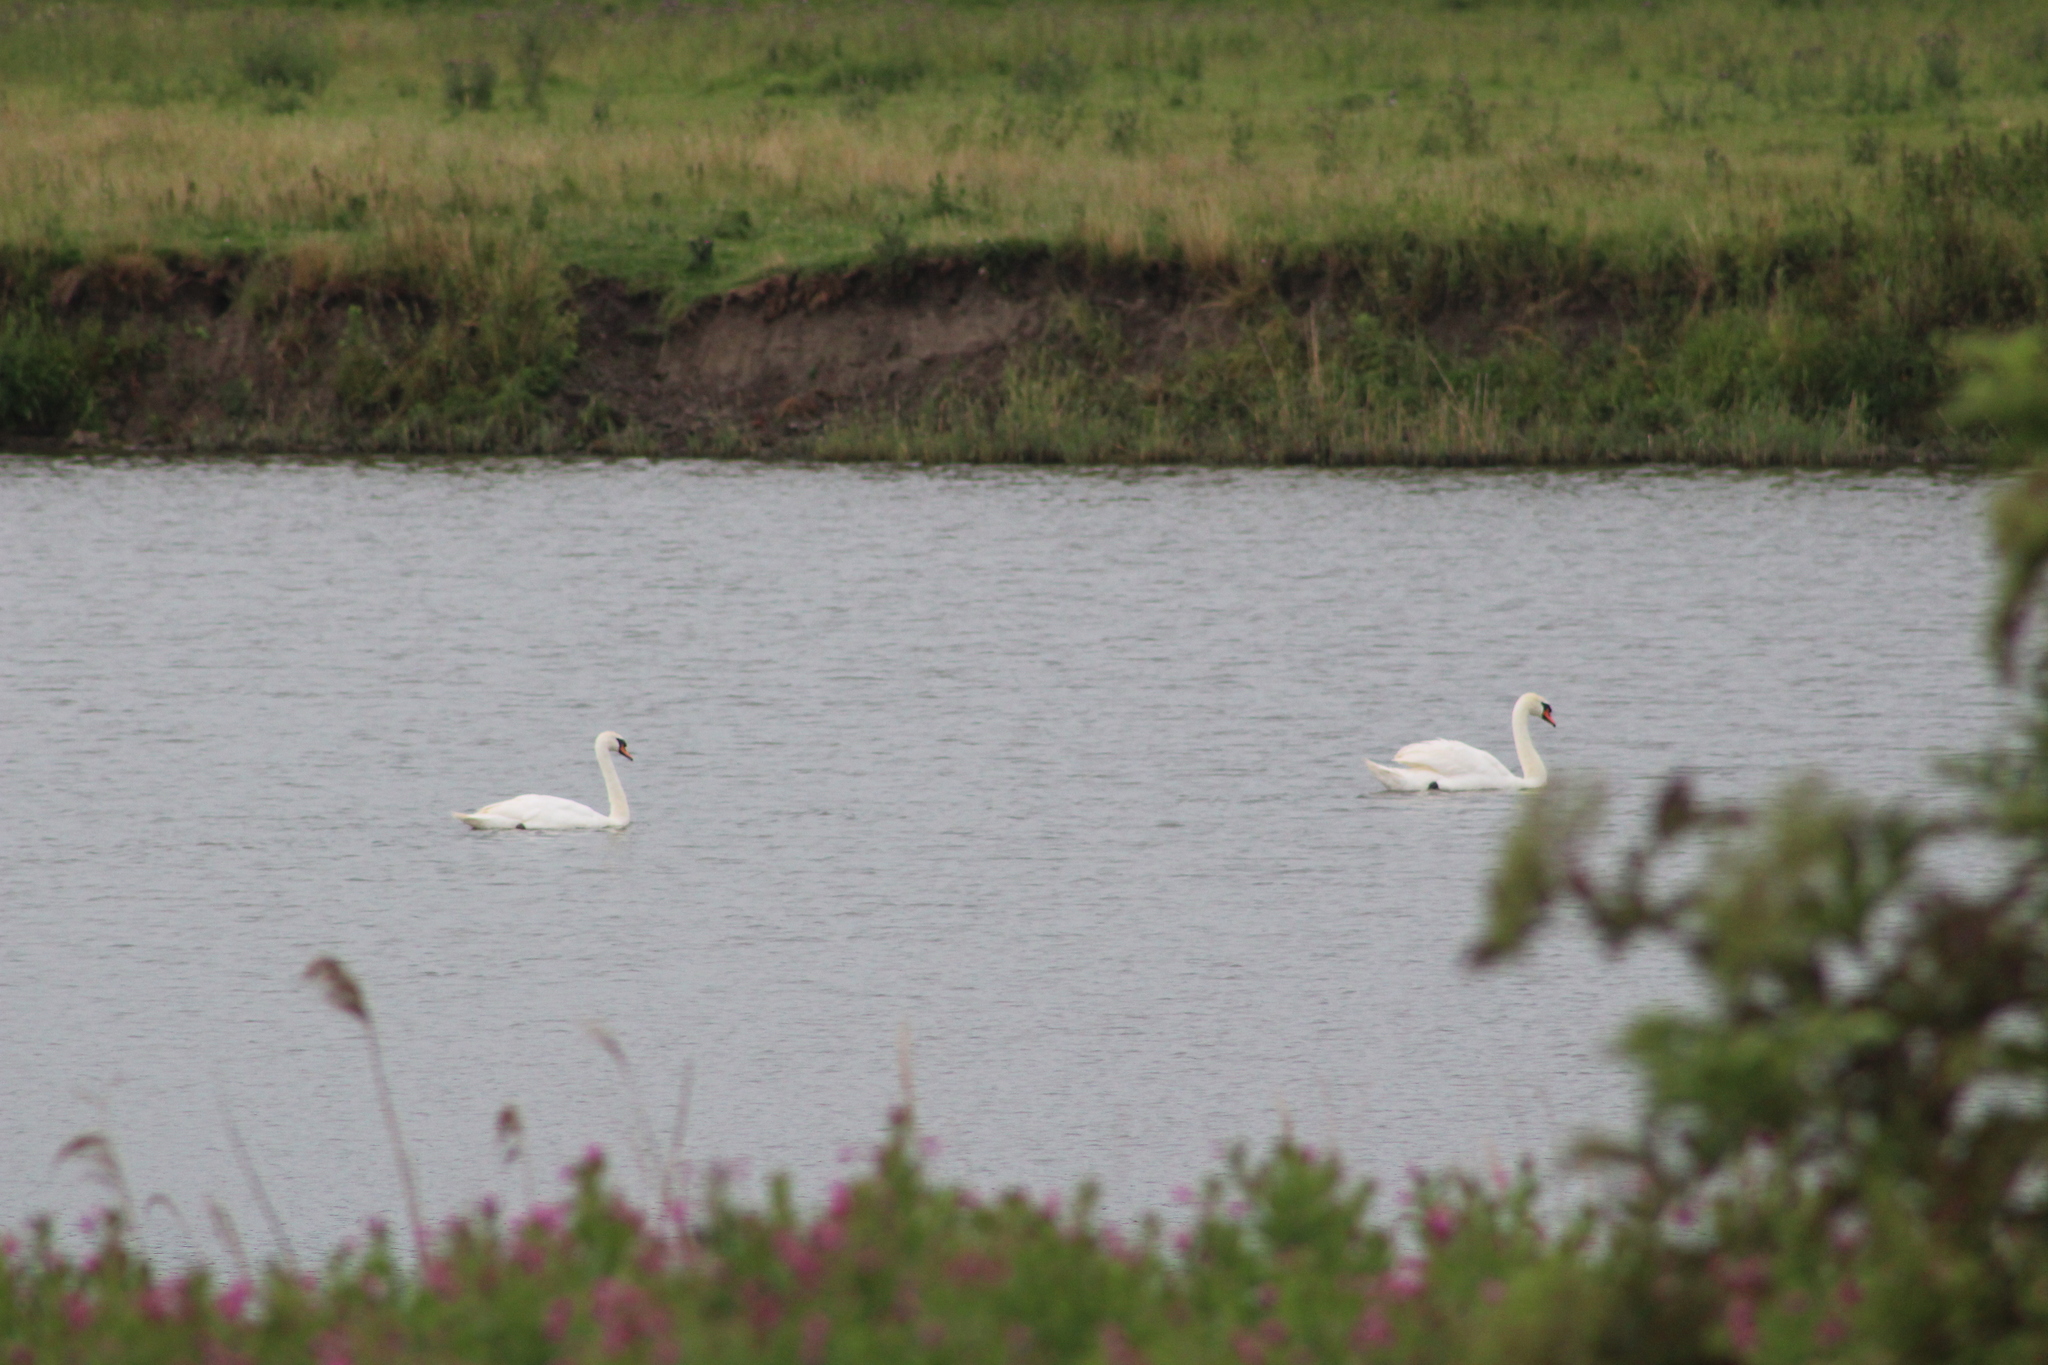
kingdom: Animalia
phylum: Chordata
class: Aves
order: Anseriformes
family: Anatidae
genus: Cygnus
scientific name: Cygnus olor
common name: Mute swan
